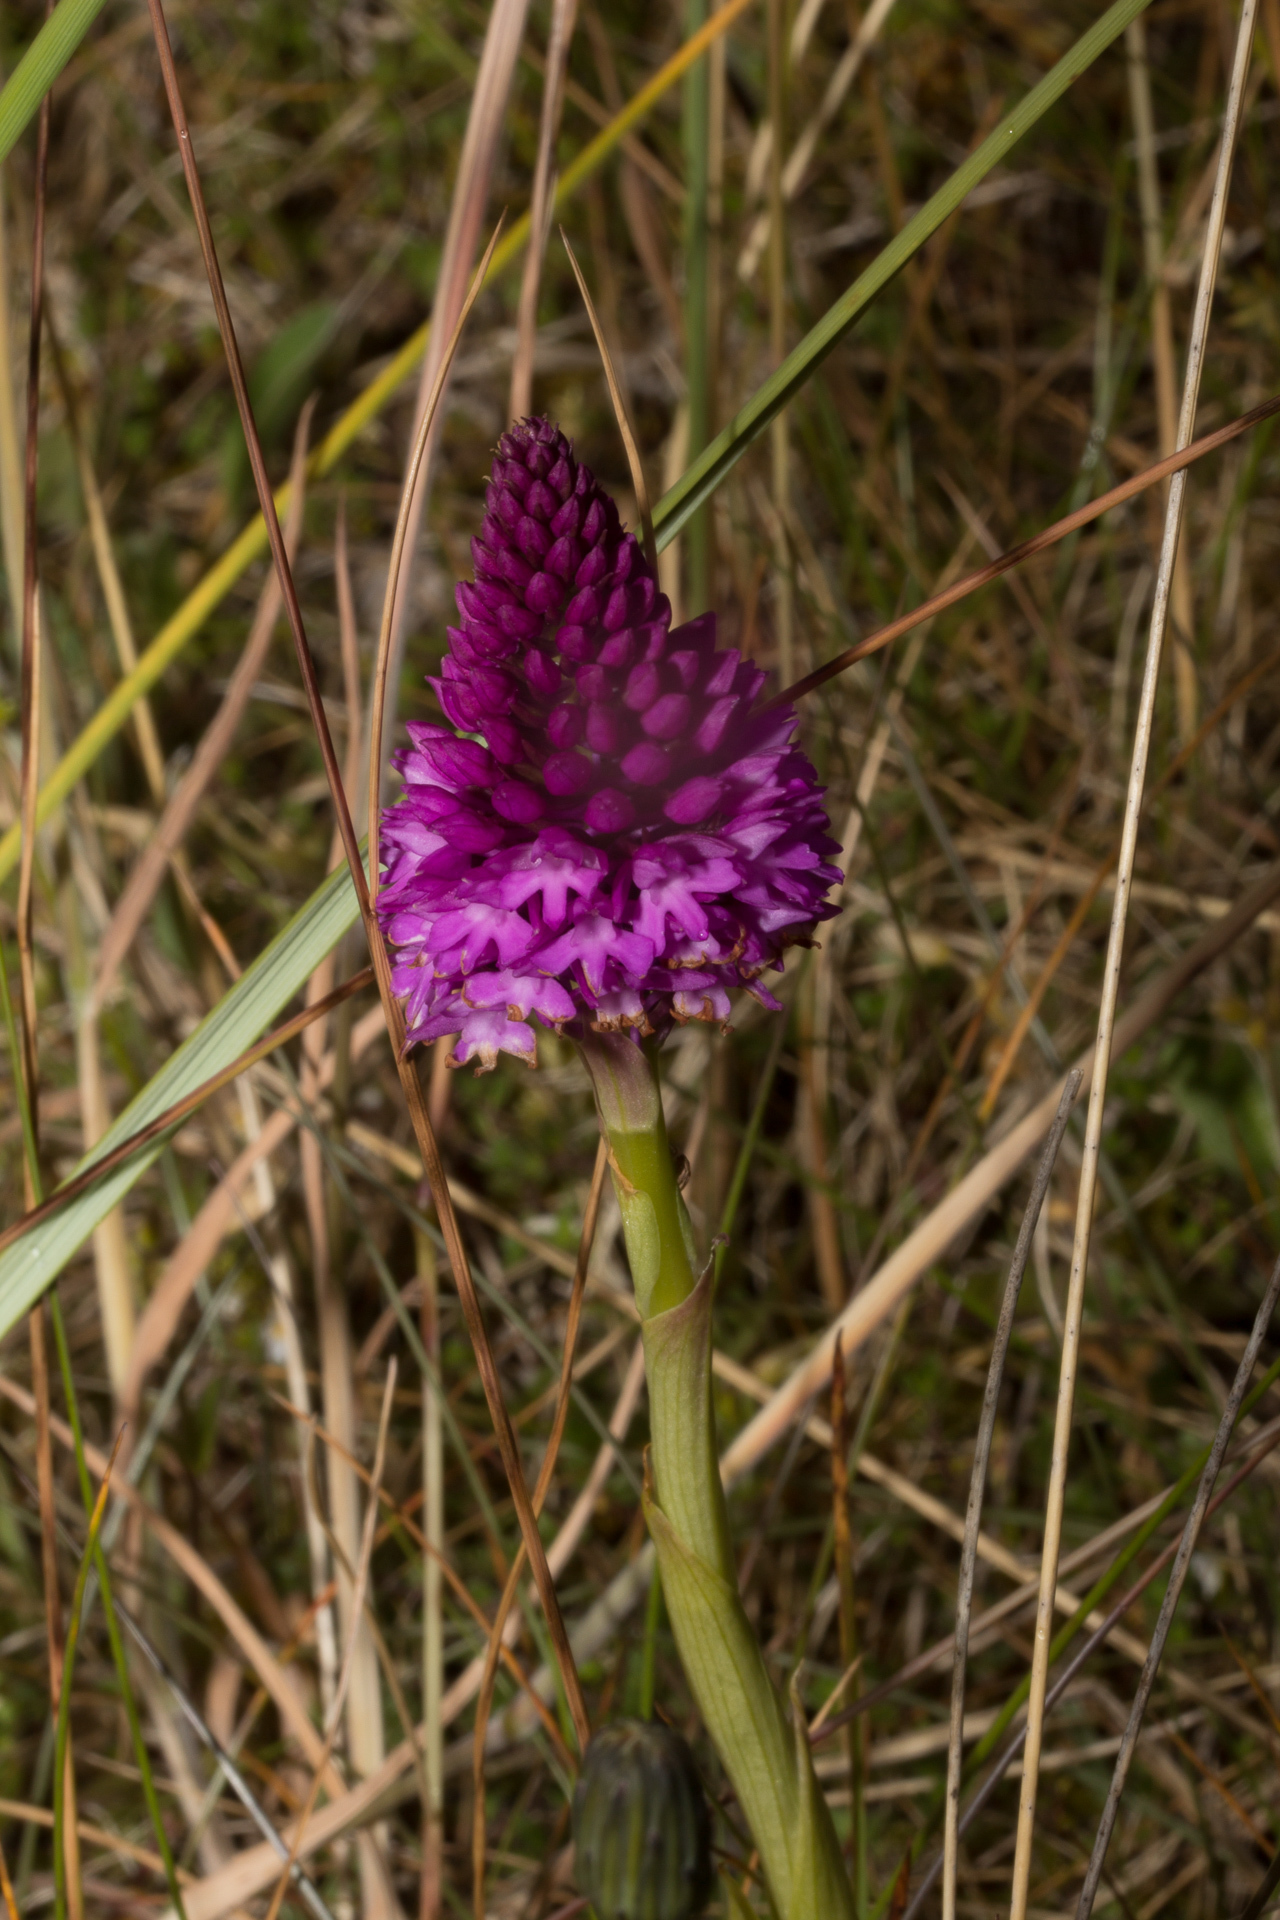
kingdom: Plantae
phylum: Tracheophyta
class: Liliopsida
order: Asparagales
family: Orchidaceae
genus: Anacamptis
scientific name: Anacamptis pyramidalis
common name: Pyramidal orchid
